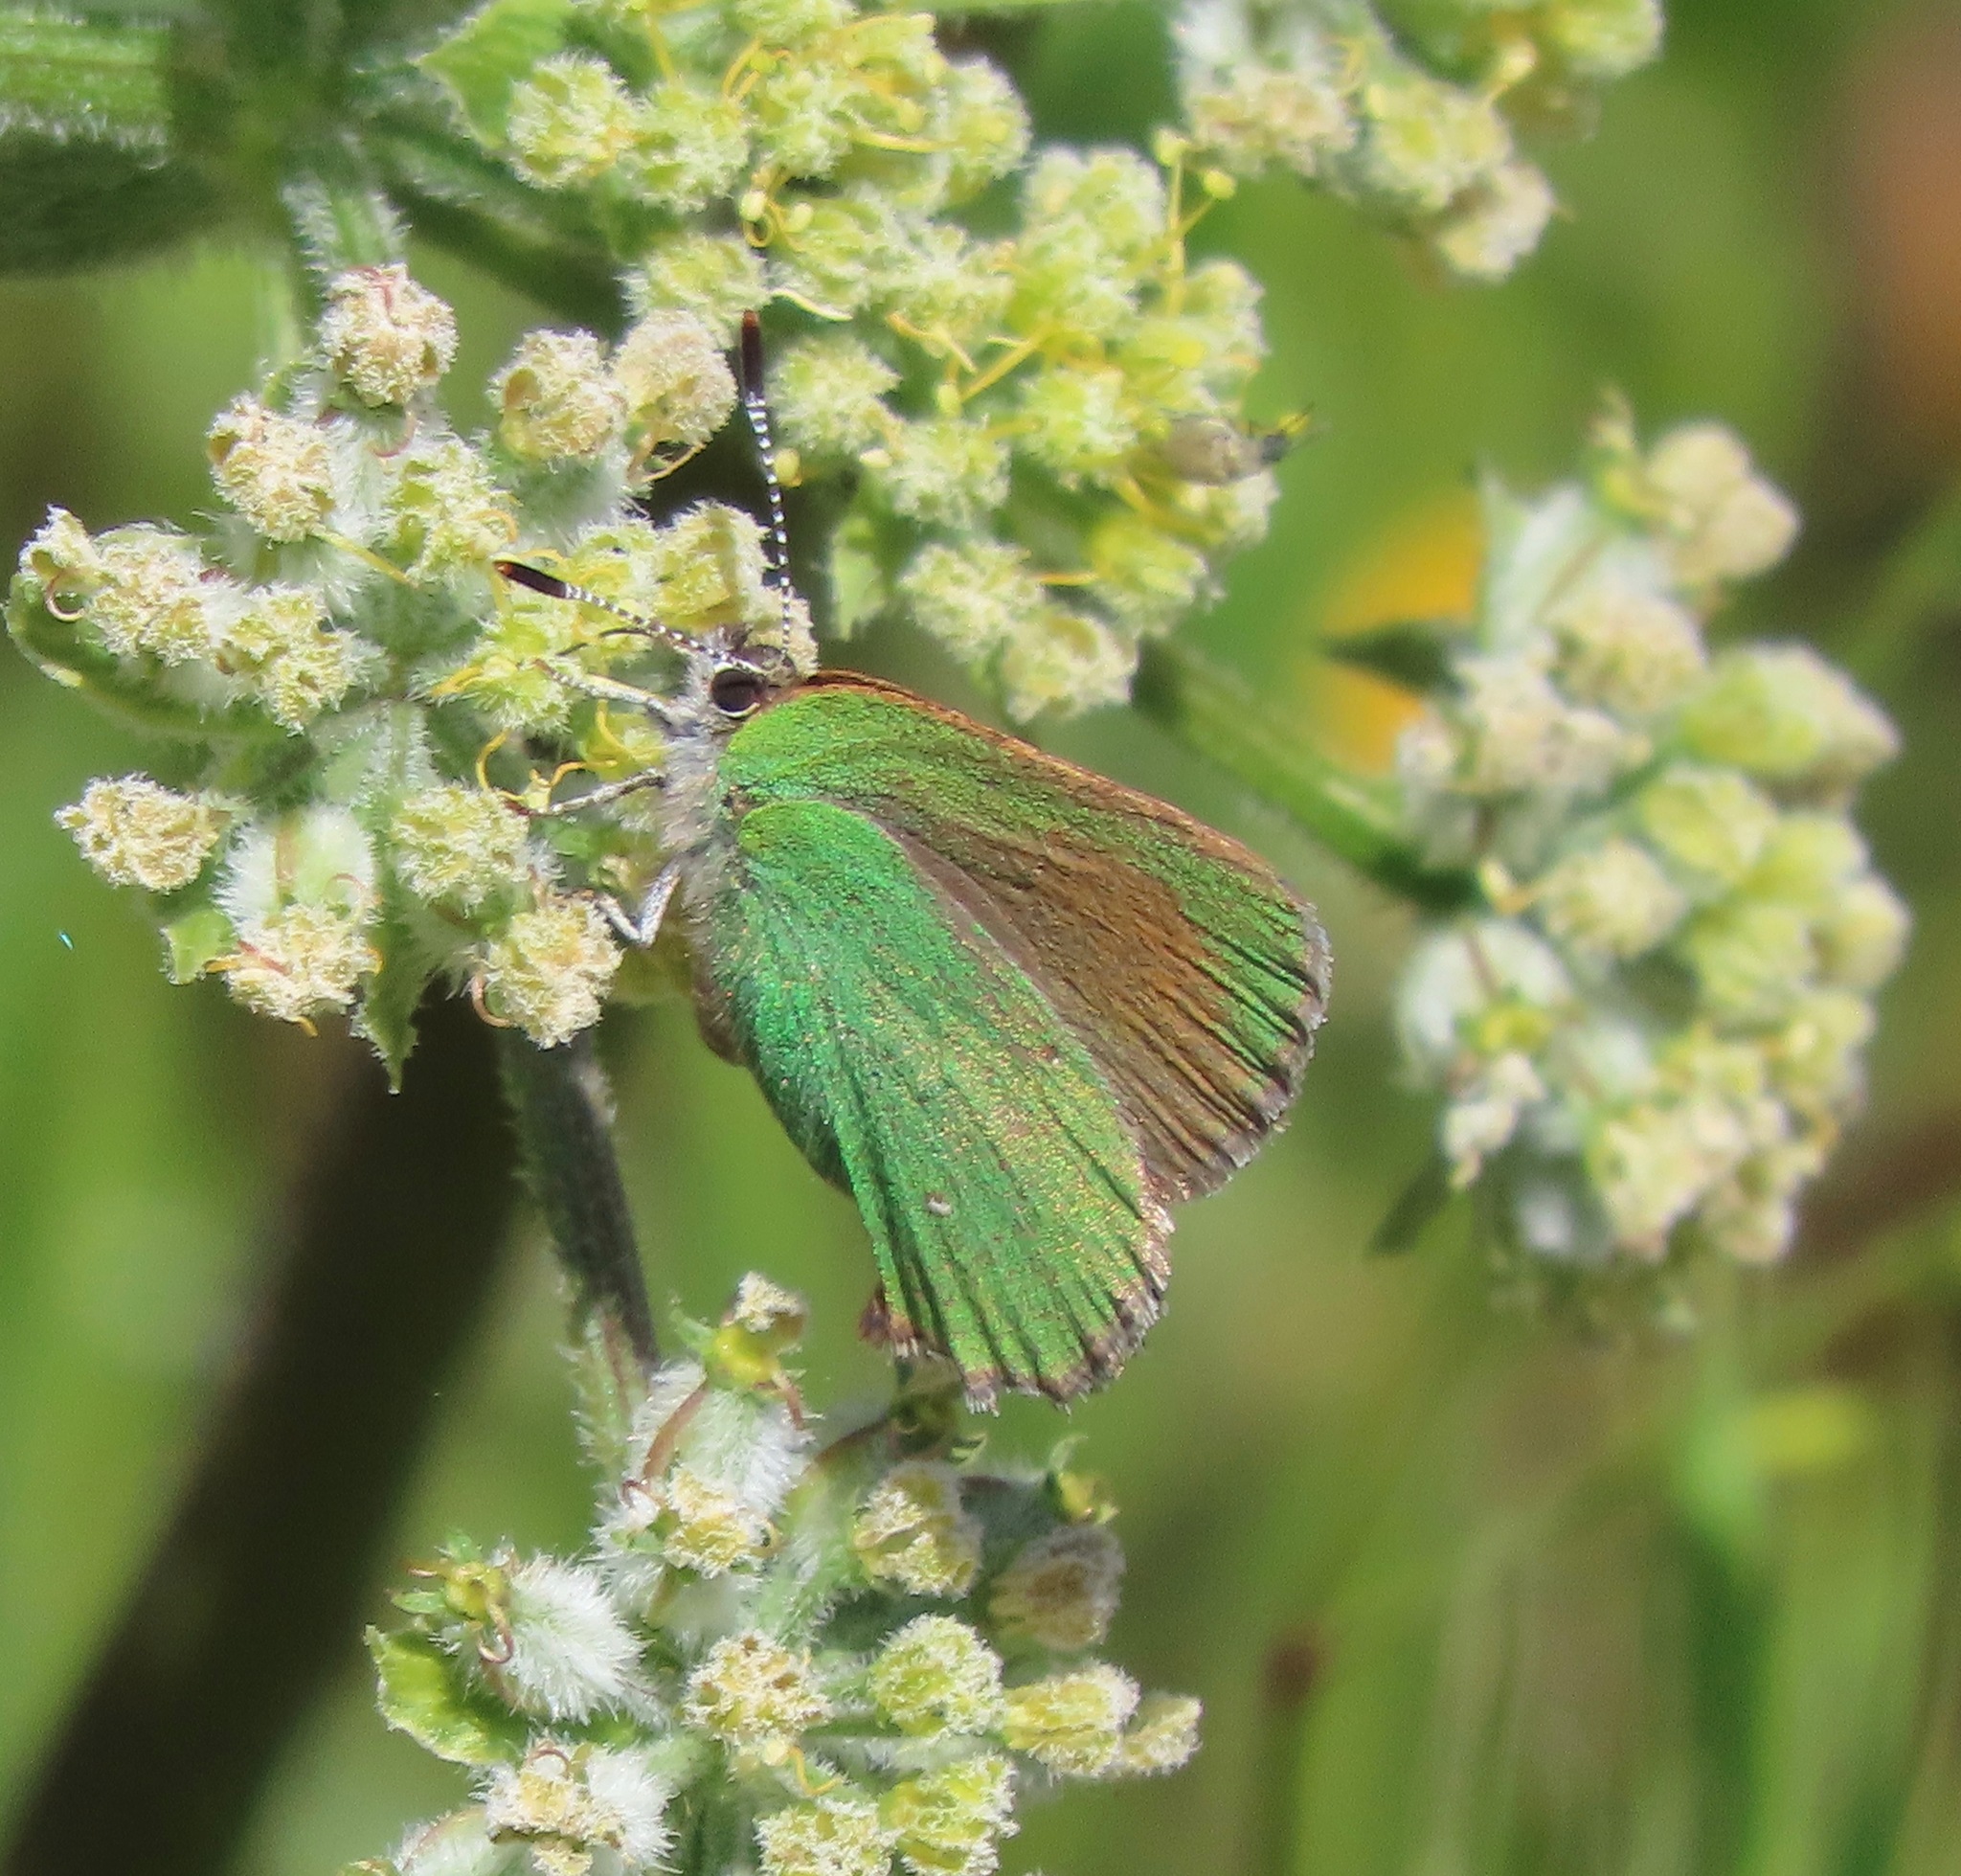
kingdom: Animalia
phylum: Arthropoda
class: Insecta
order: Lepidoptera
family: Lycaenidae
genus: Callophrys
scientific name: Callophrys dumetorum
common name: Bramble hairstreak
